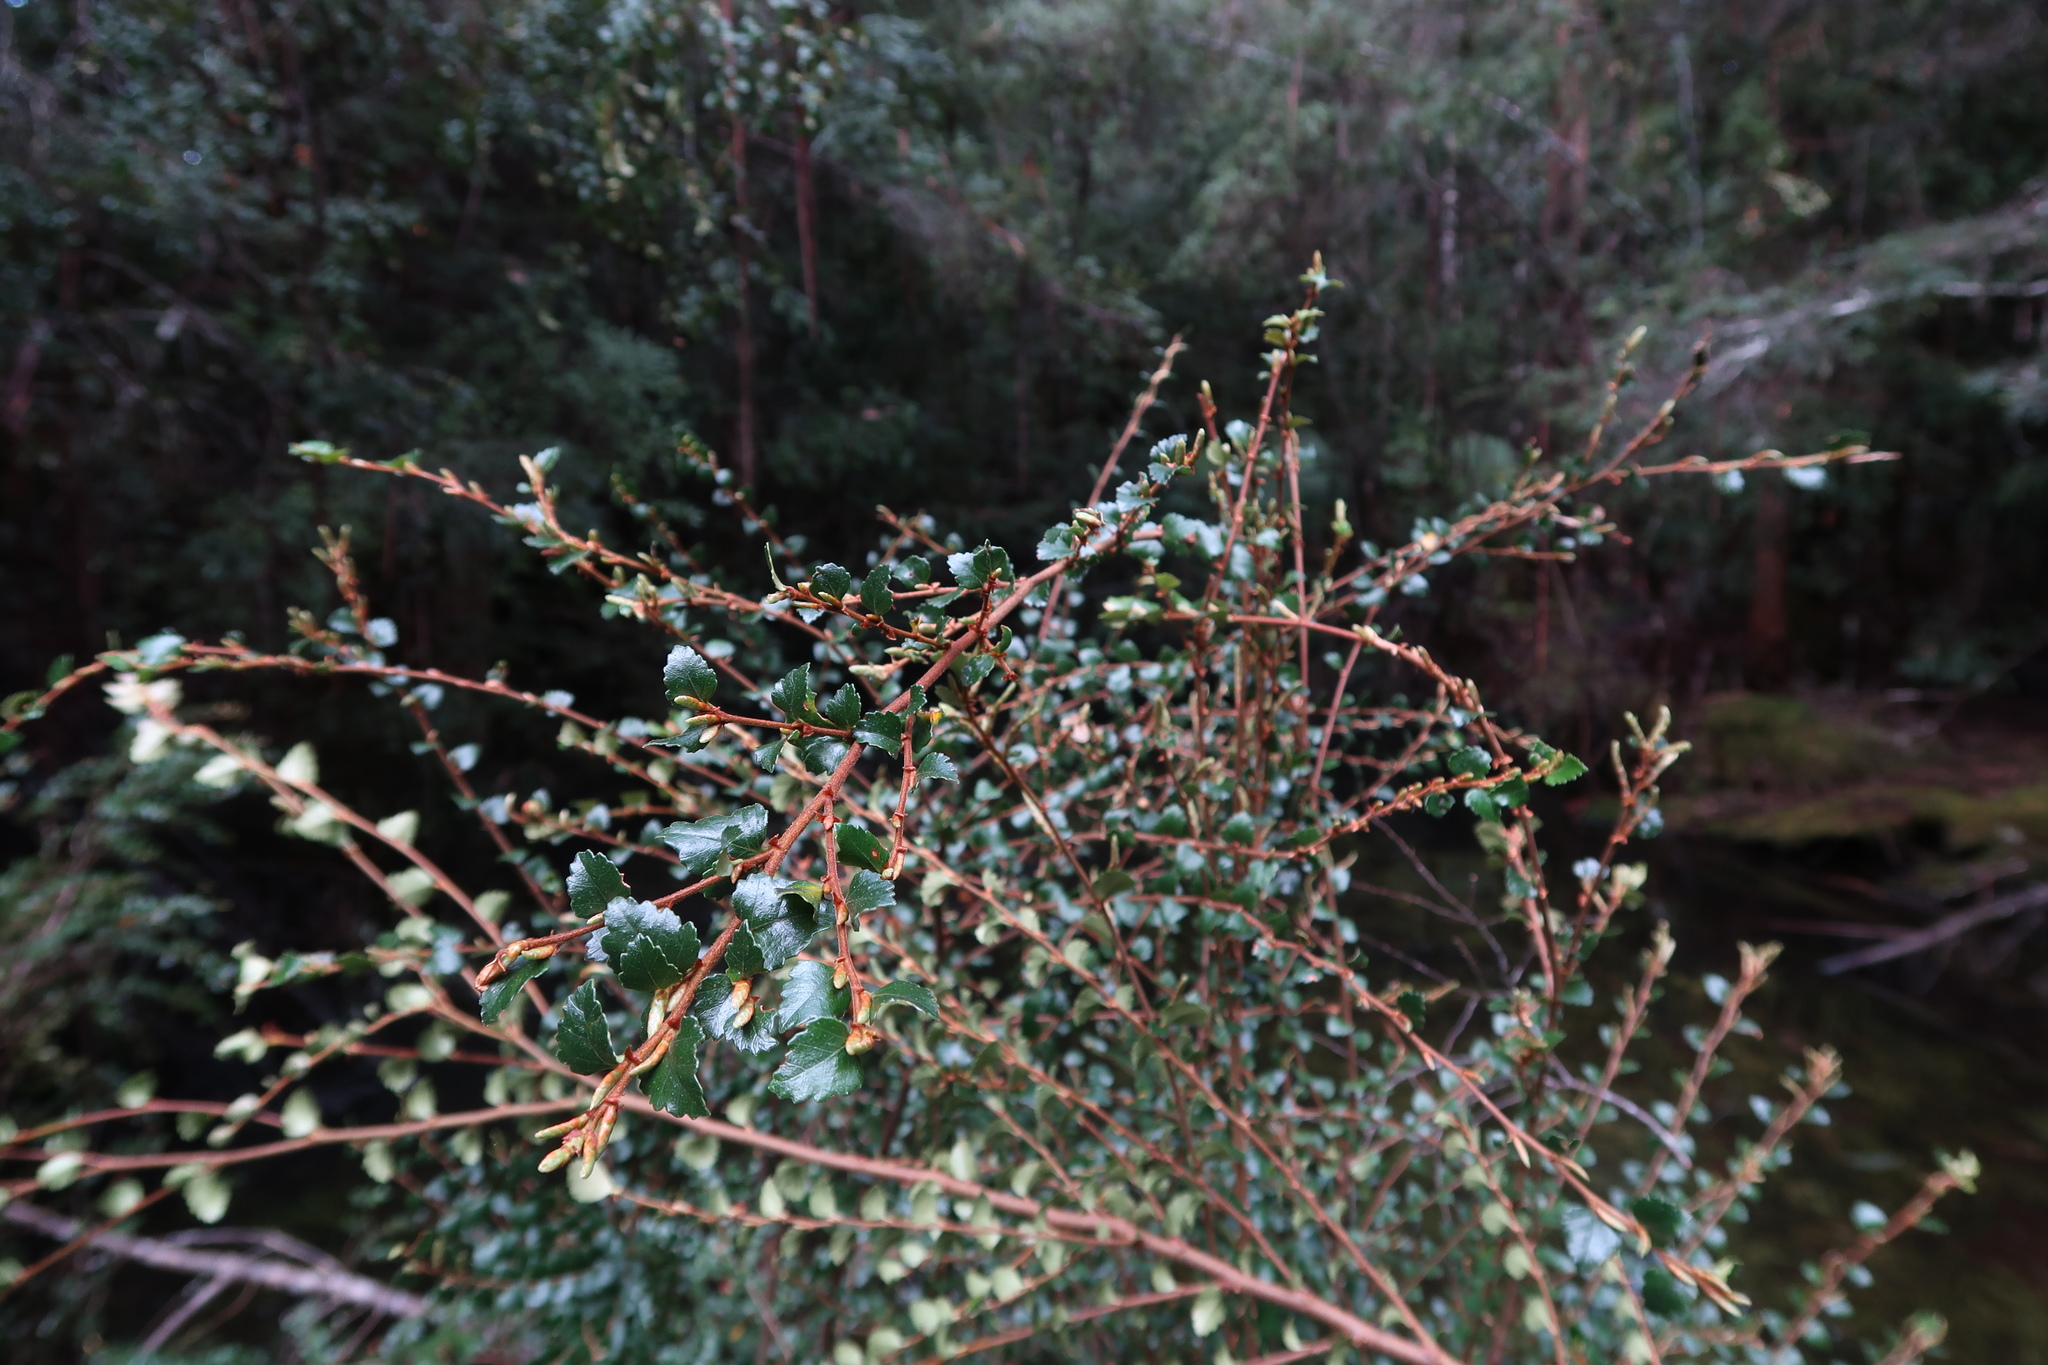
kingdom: Plantae
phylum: Tracheophyta
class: Magnoliopsida
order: Fagales
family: Nothofagaceae
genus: Nothofagus
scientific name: Nothofagus cunninghamii
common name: Myrtle beech
